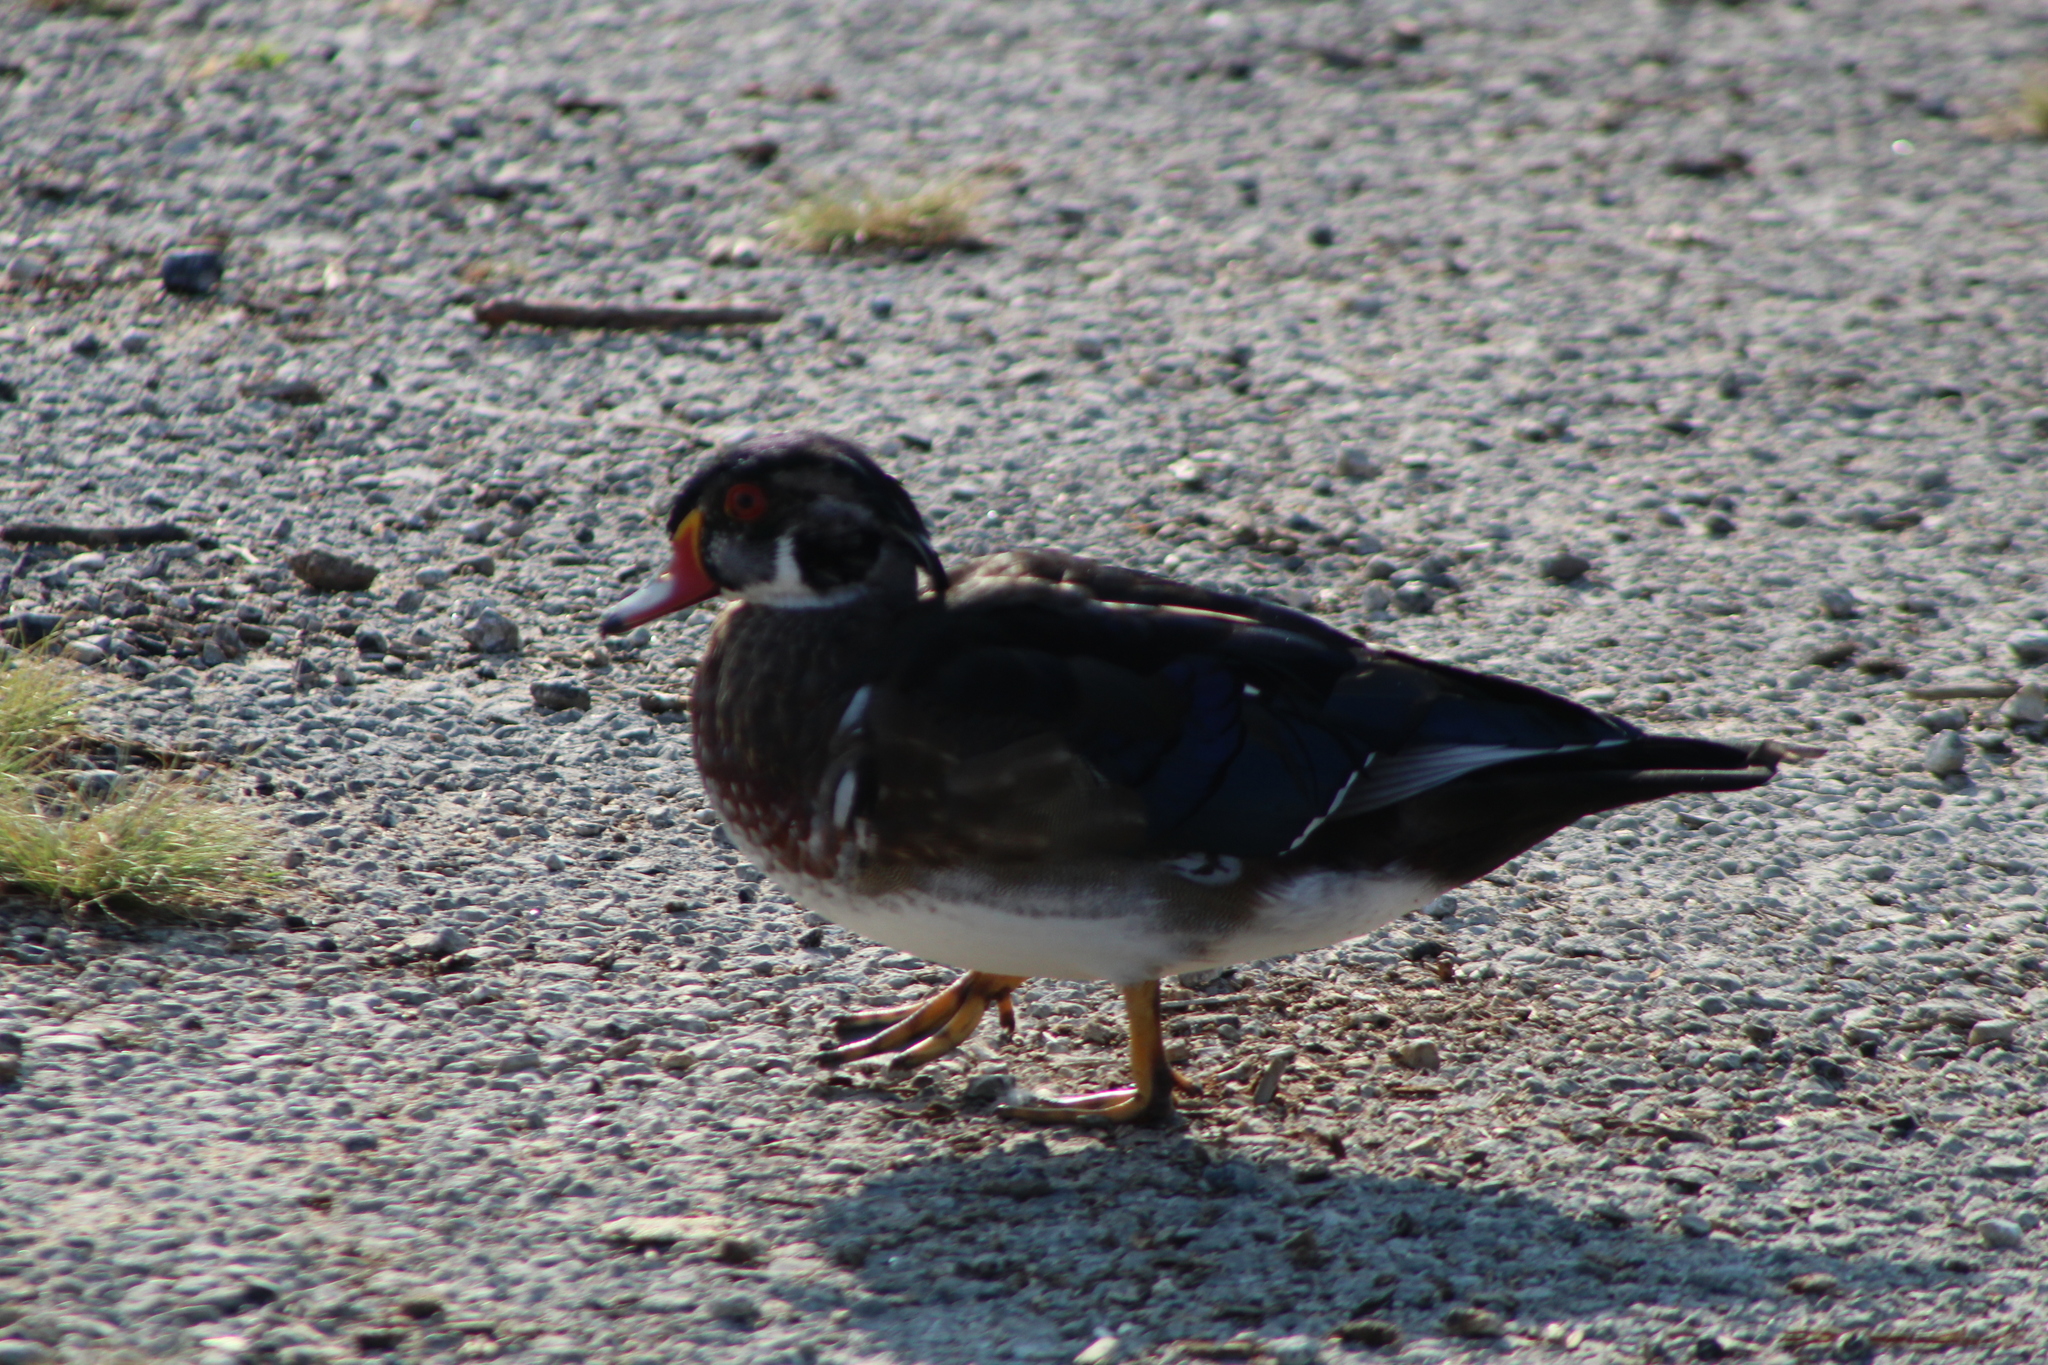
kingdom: Animalia
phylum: Chordata
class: Aves
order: Anseriformes
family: Anatidae
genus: Aix
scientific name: Aix sponsa
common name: Wood duck
